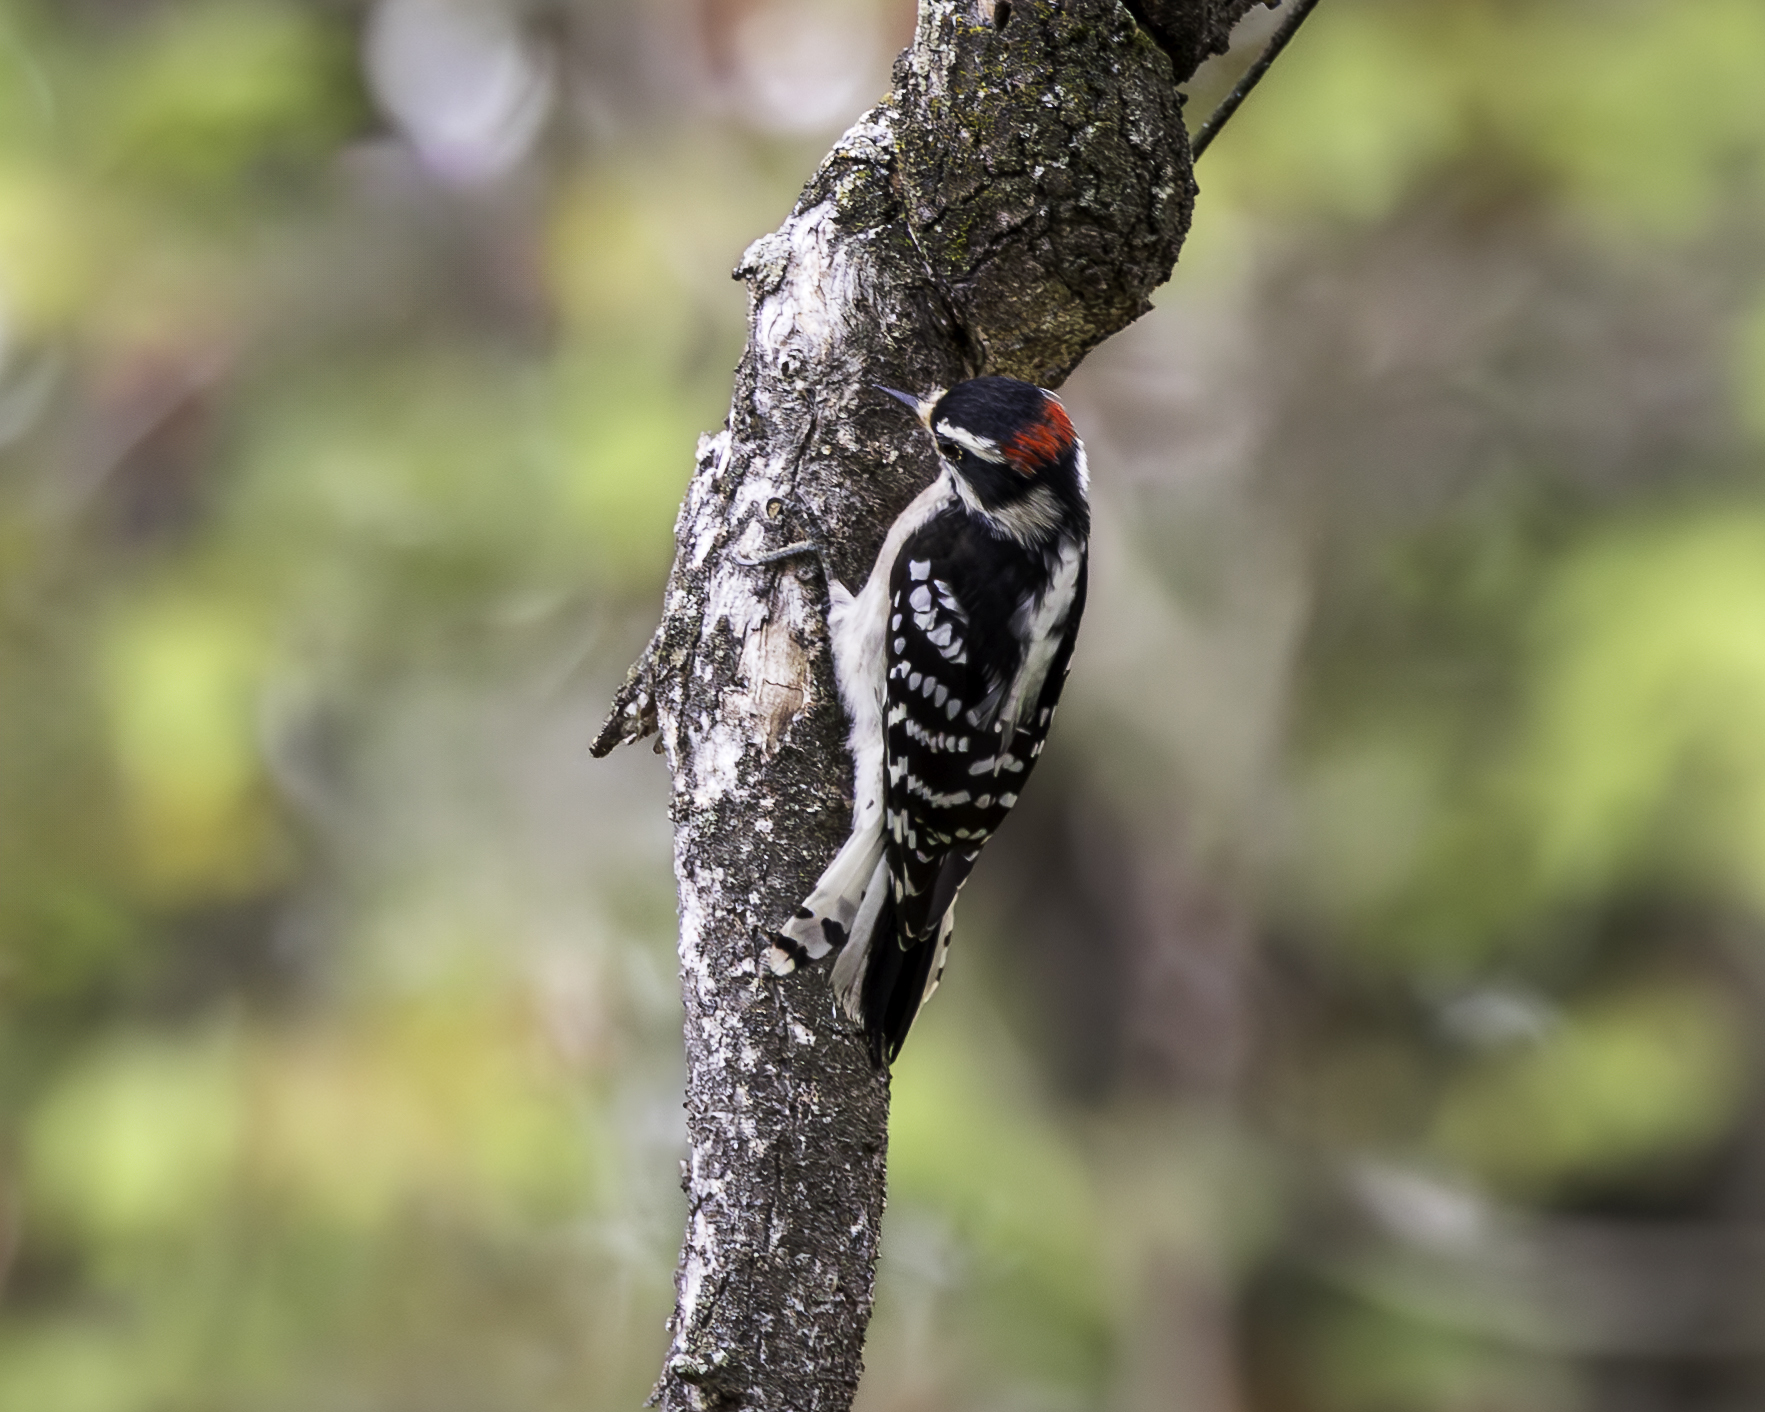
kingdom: Animalia
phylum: Chordata
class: Aves
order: Piciformes
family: Picidae
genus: Dryobates
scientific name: Dryobates pubescens
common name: Downy woodpecker
